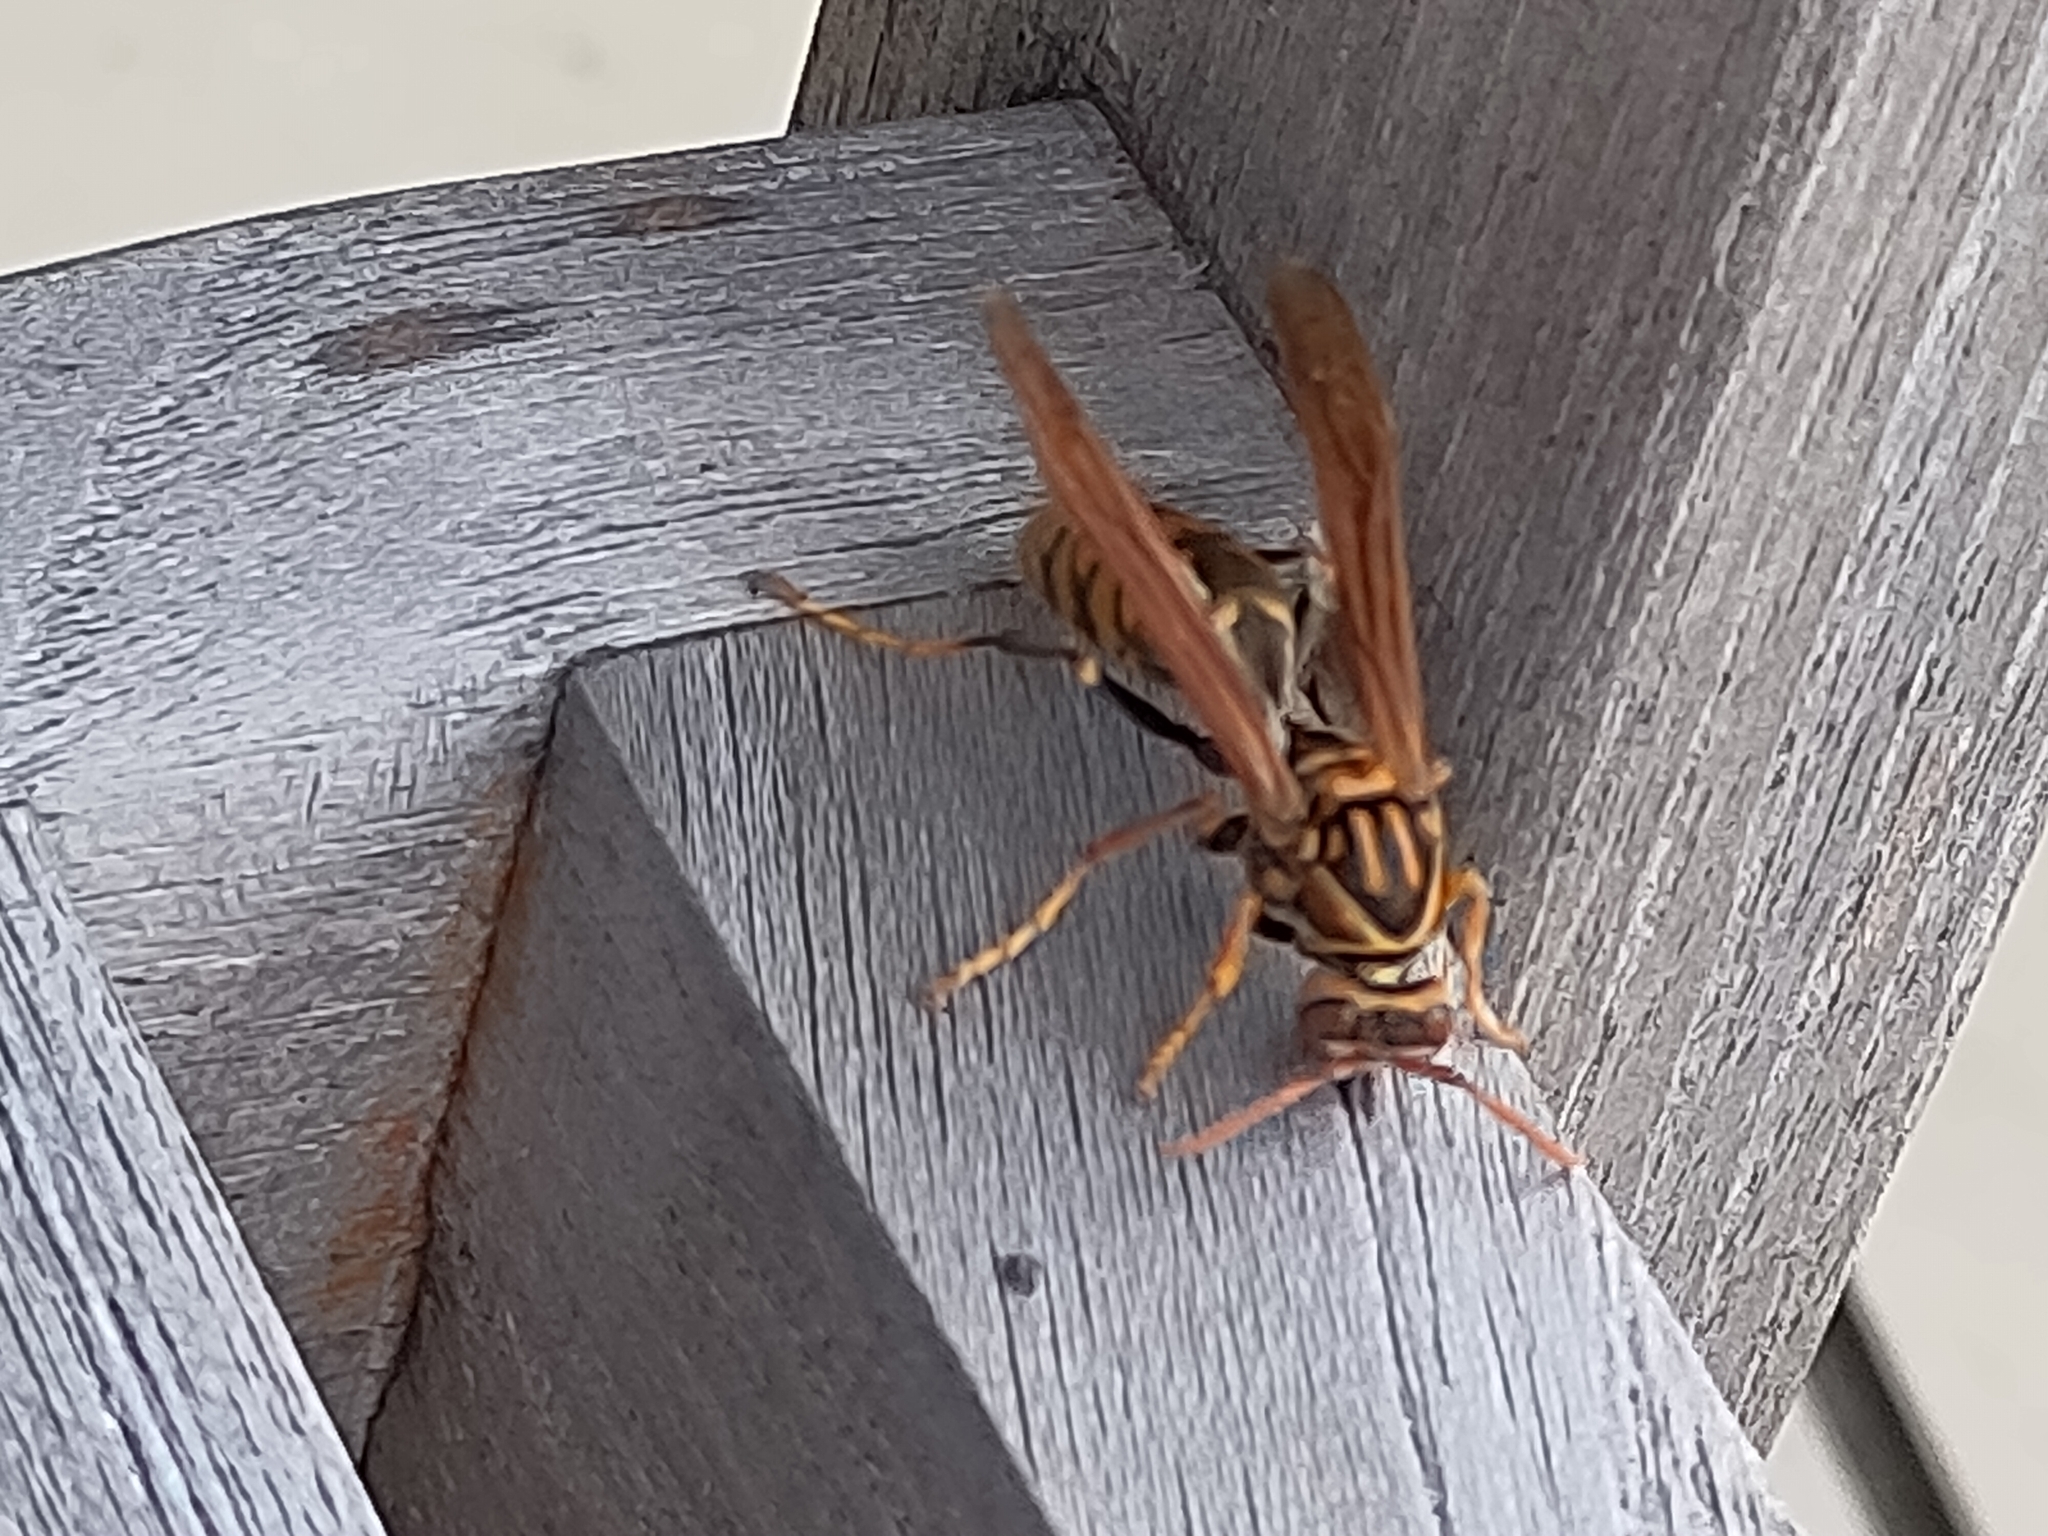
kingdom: Animalia
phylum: Arthropoda
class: Insecta
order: Hymenoptera
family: Eumenidae
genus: Polistes
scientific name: Polistes jokahamae
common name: Paper wasp
